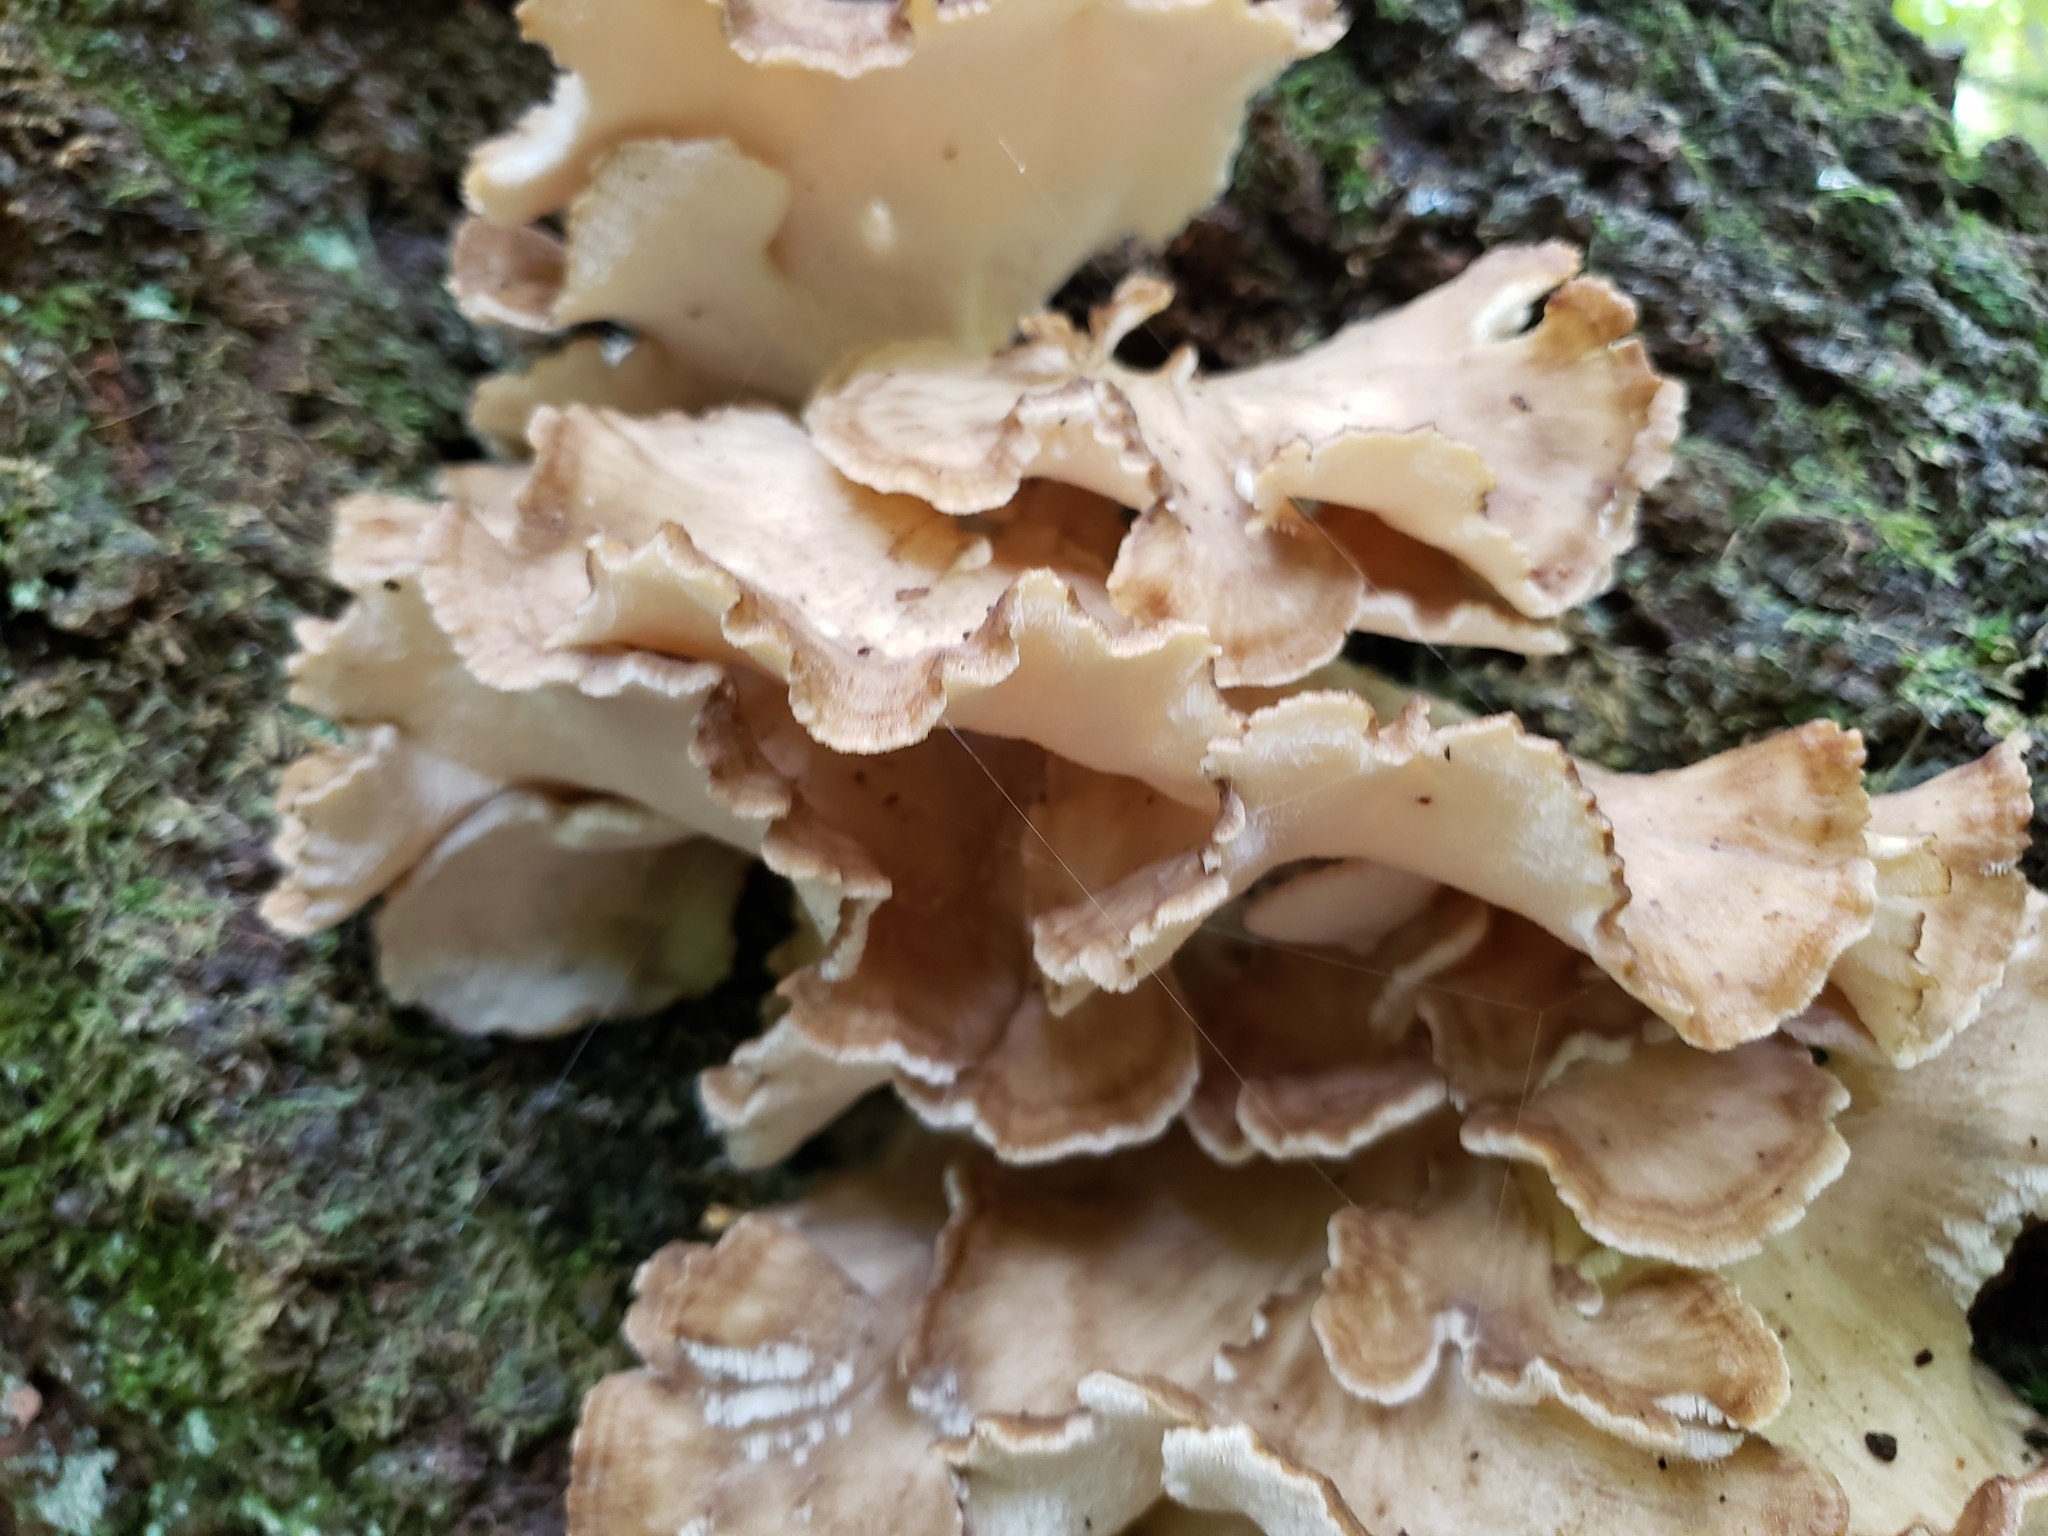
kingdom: Fungi
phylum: Basidiomycota
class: Agaricomycetes
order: Polyporales
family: Grifolaceae
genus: Grifola
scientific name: Grifola frondosa
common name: Hen of the woods
